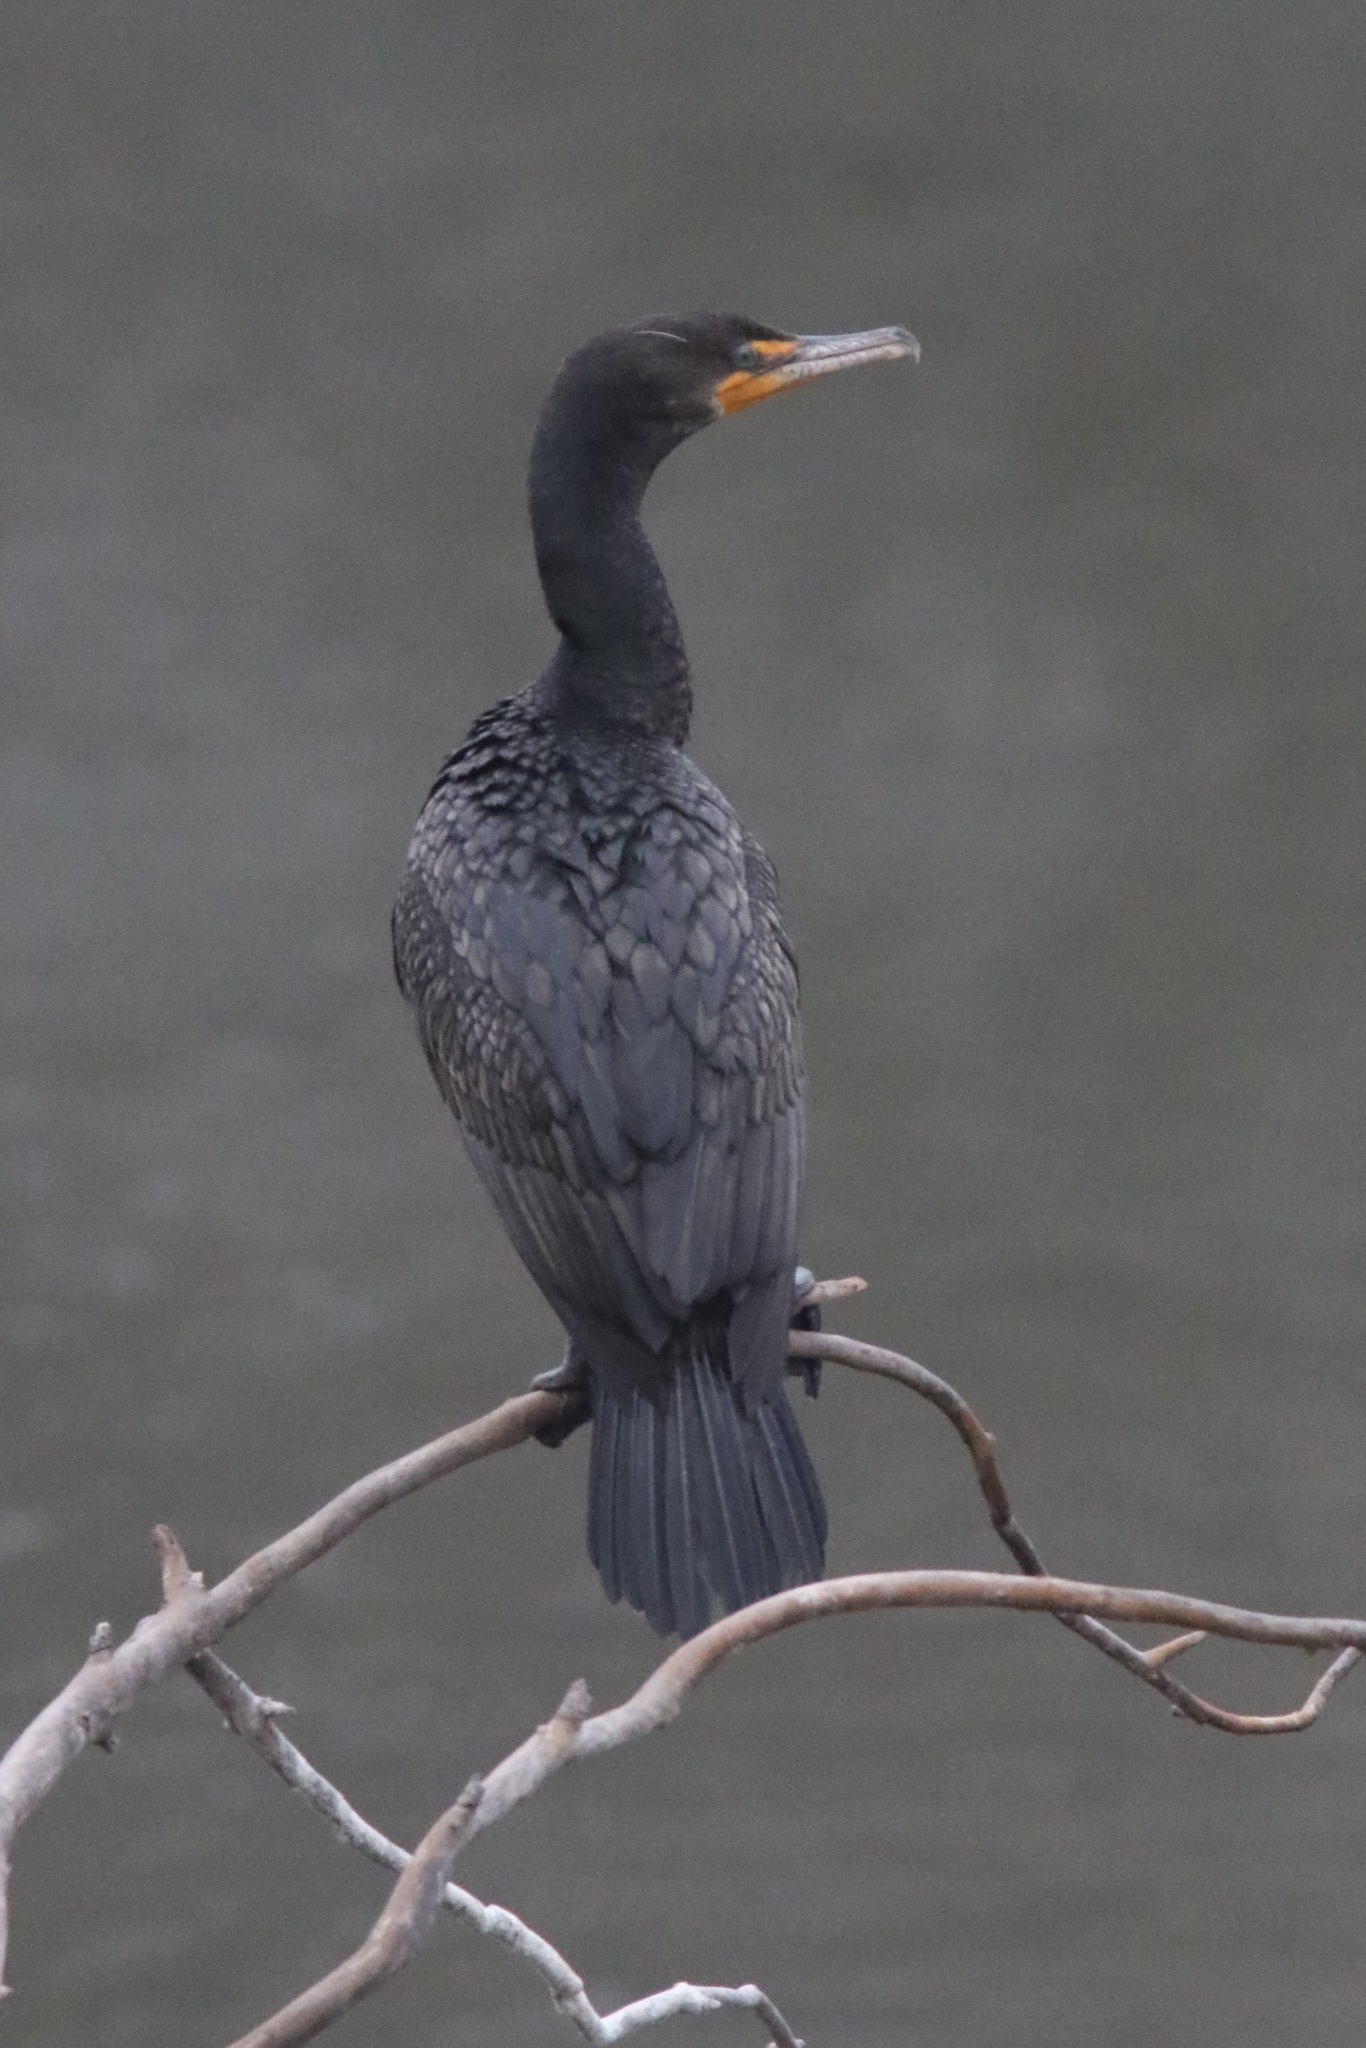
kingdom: Animalia
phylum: Chordata
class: Aves
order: Suliformes
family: Phalacrocoracidae
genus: Phalacrocorax
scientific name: Phalacrocorax auritus
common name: Double-crested cormorant
